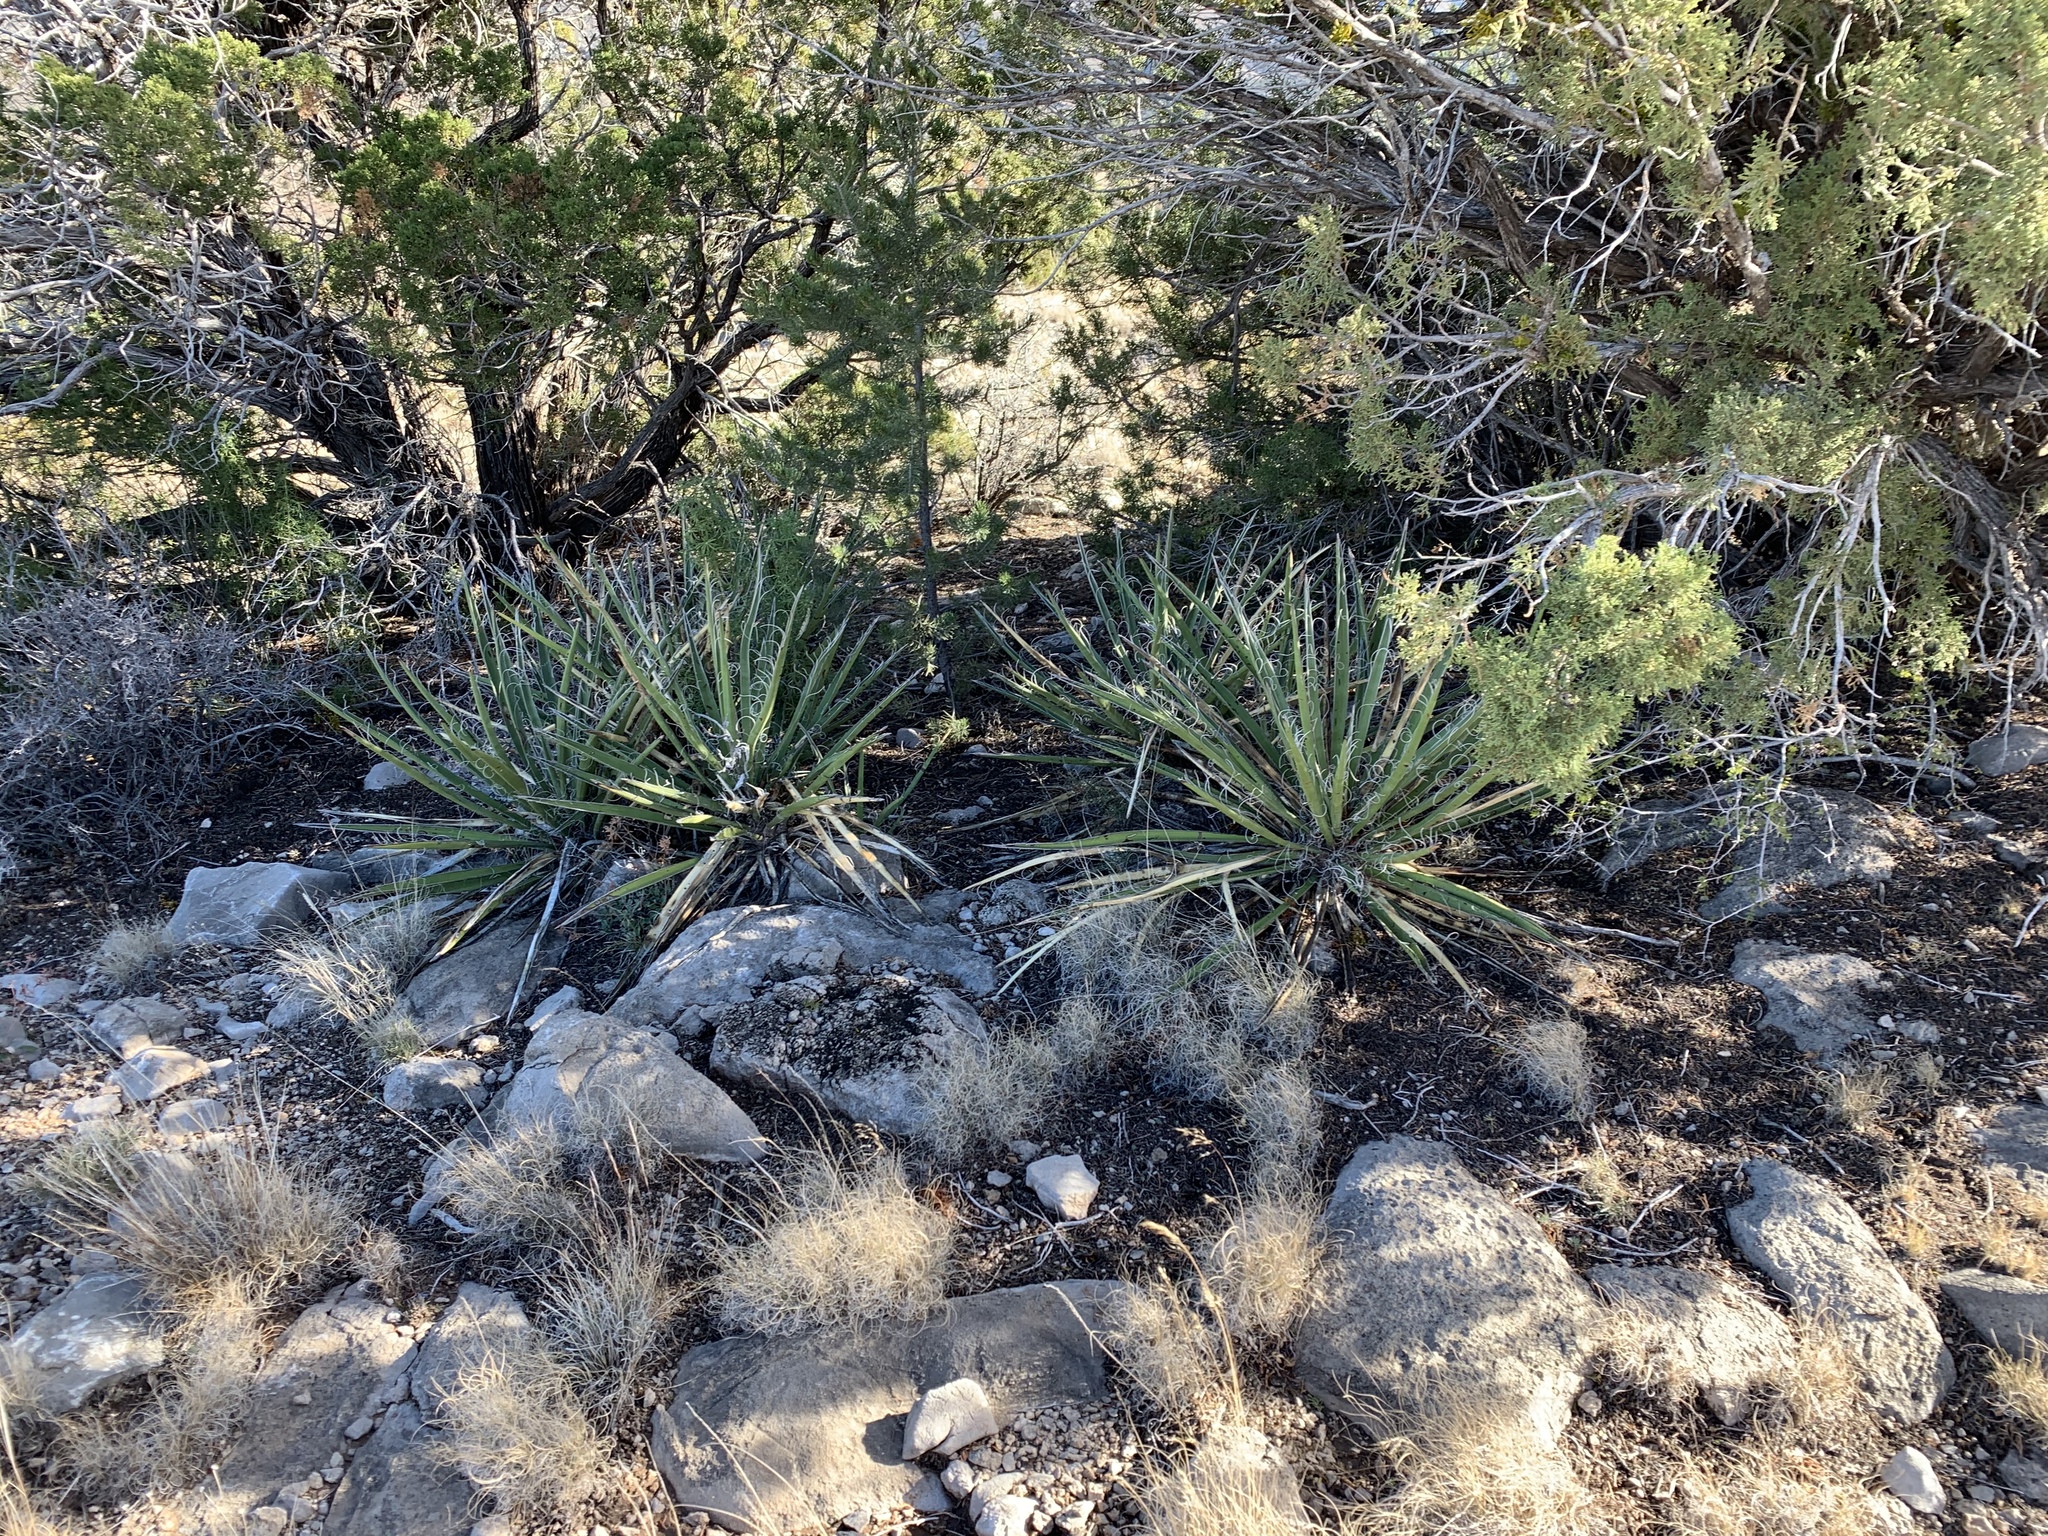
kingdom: Plantae
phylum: Tracheophyta
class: Liliopsida
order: Asparagales
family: Asparagaceae
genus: Yucca
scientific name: Yucca baccata
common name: Banana yucca
